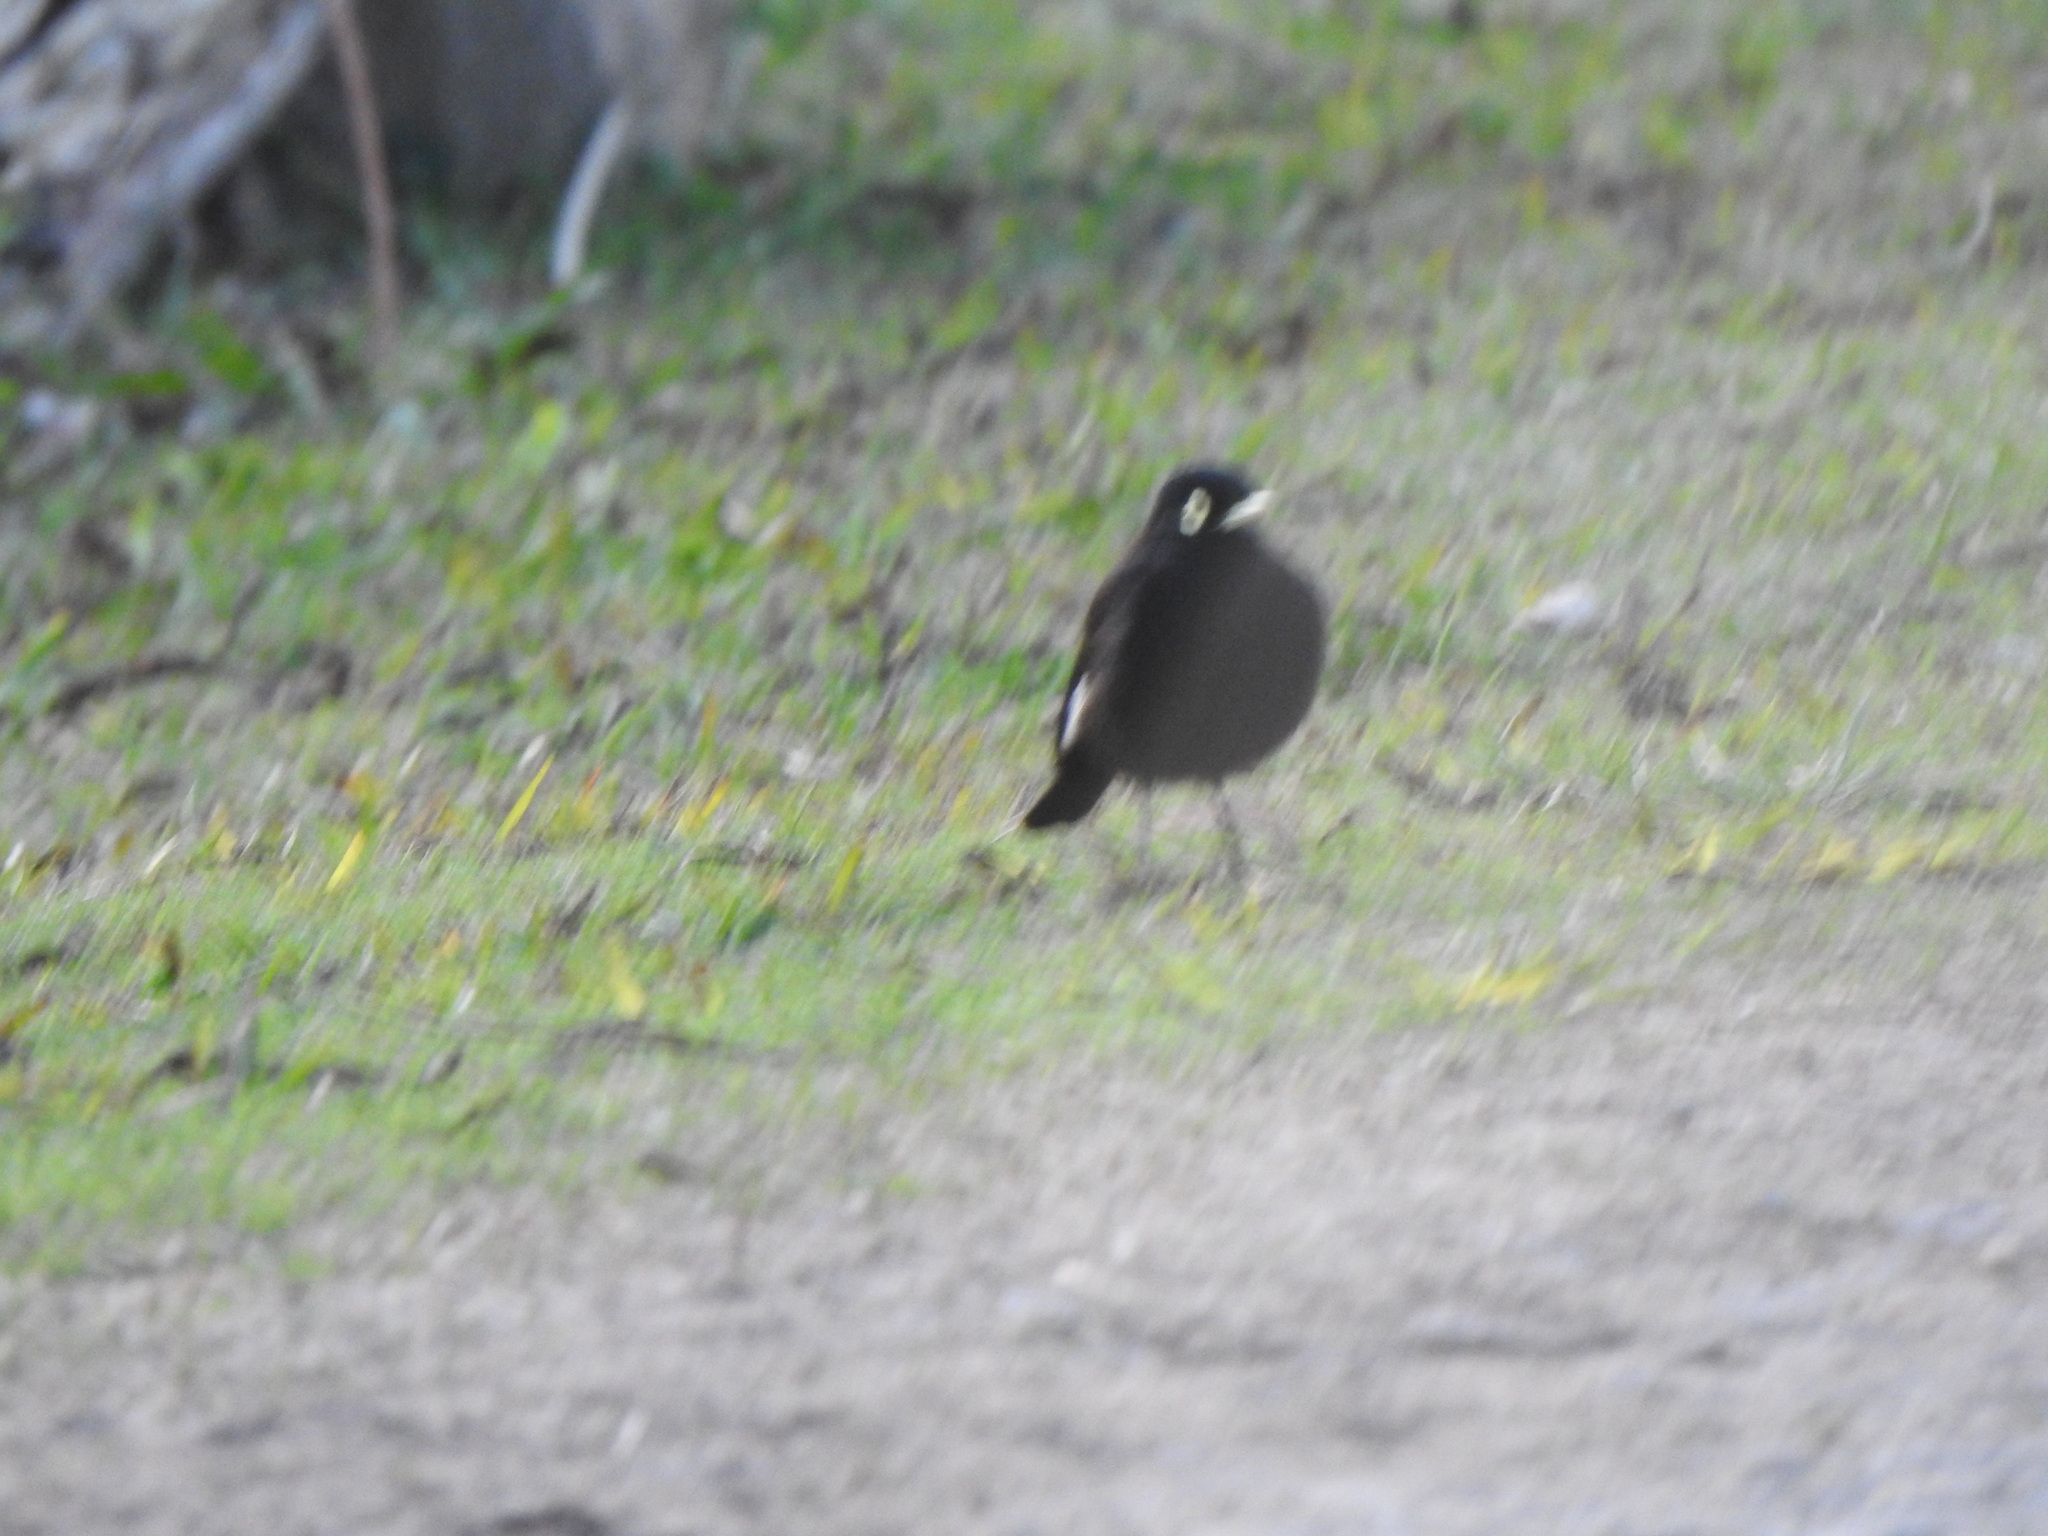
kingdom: Animalia
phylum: Chordata
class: Aves
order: Passeriformes
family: Tyrannidae
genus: Hymenops
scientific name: Hymenops perspicillatus
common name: Spectacled tyrant
